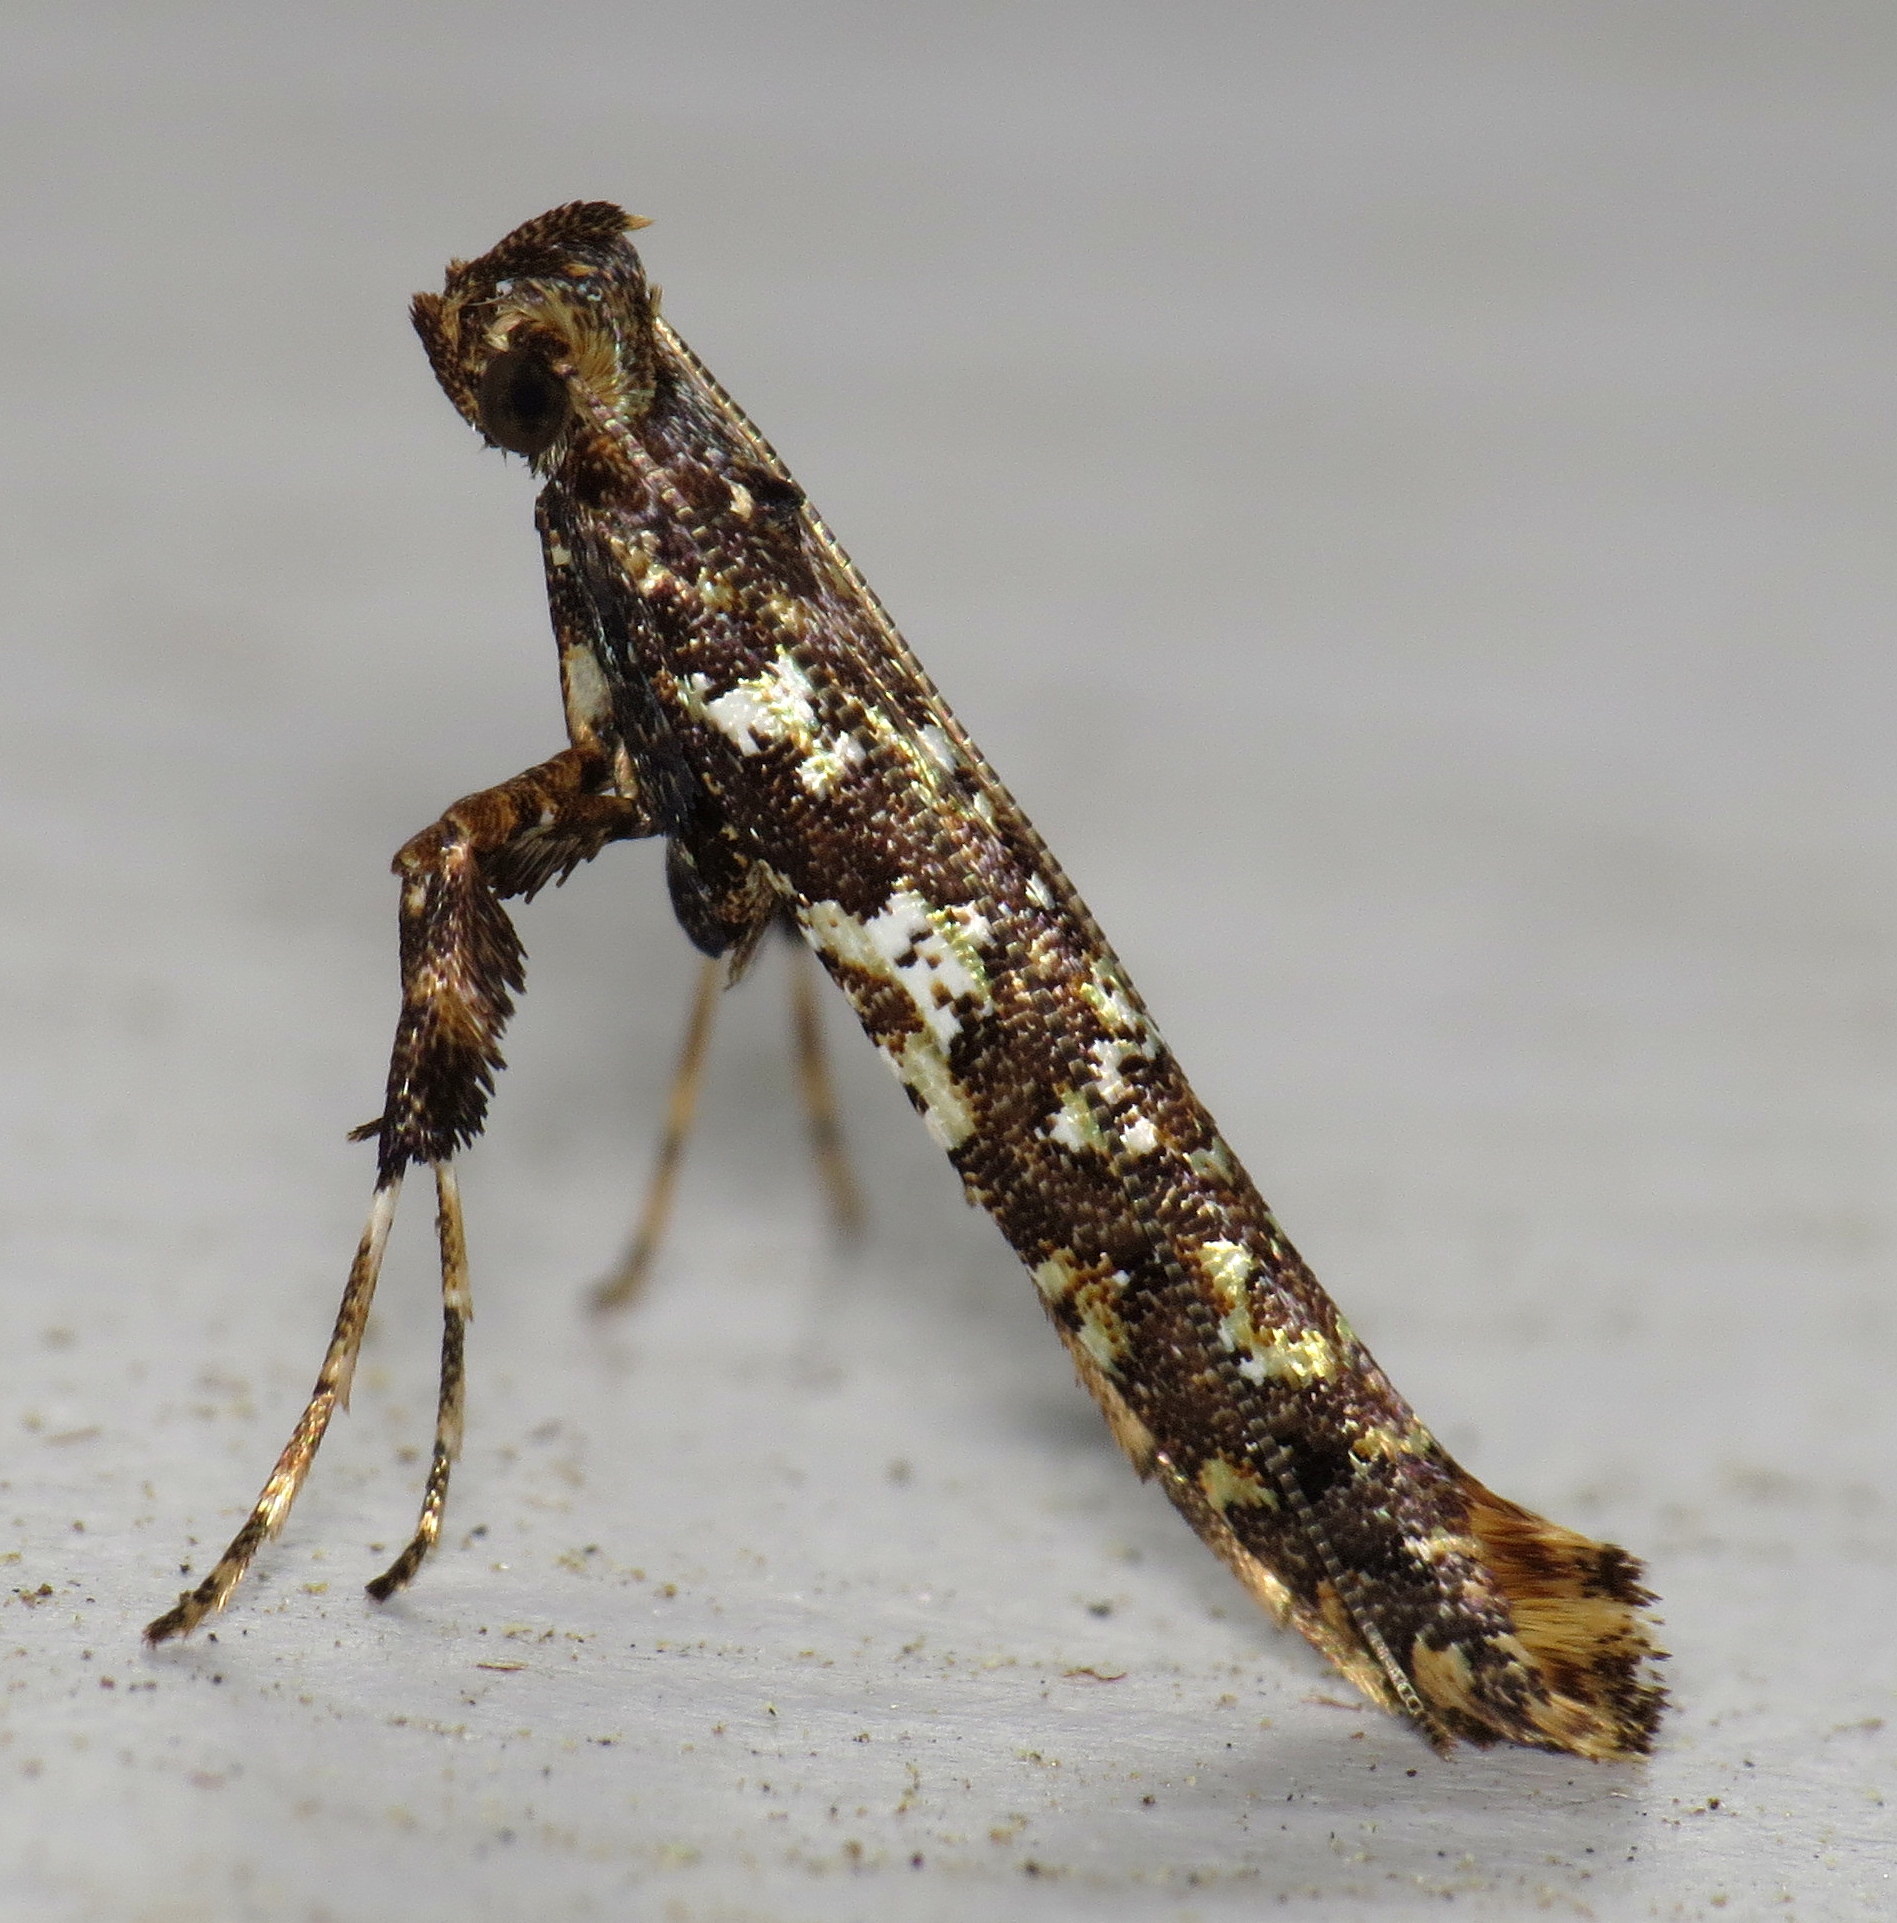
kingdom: Animalia
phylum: Arthropoda
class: Insecta
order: Lepidoptera
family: Gracillariidae
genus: Caloptilia
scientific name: Caloptilia serotinella
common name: Cherry leafroller moth
